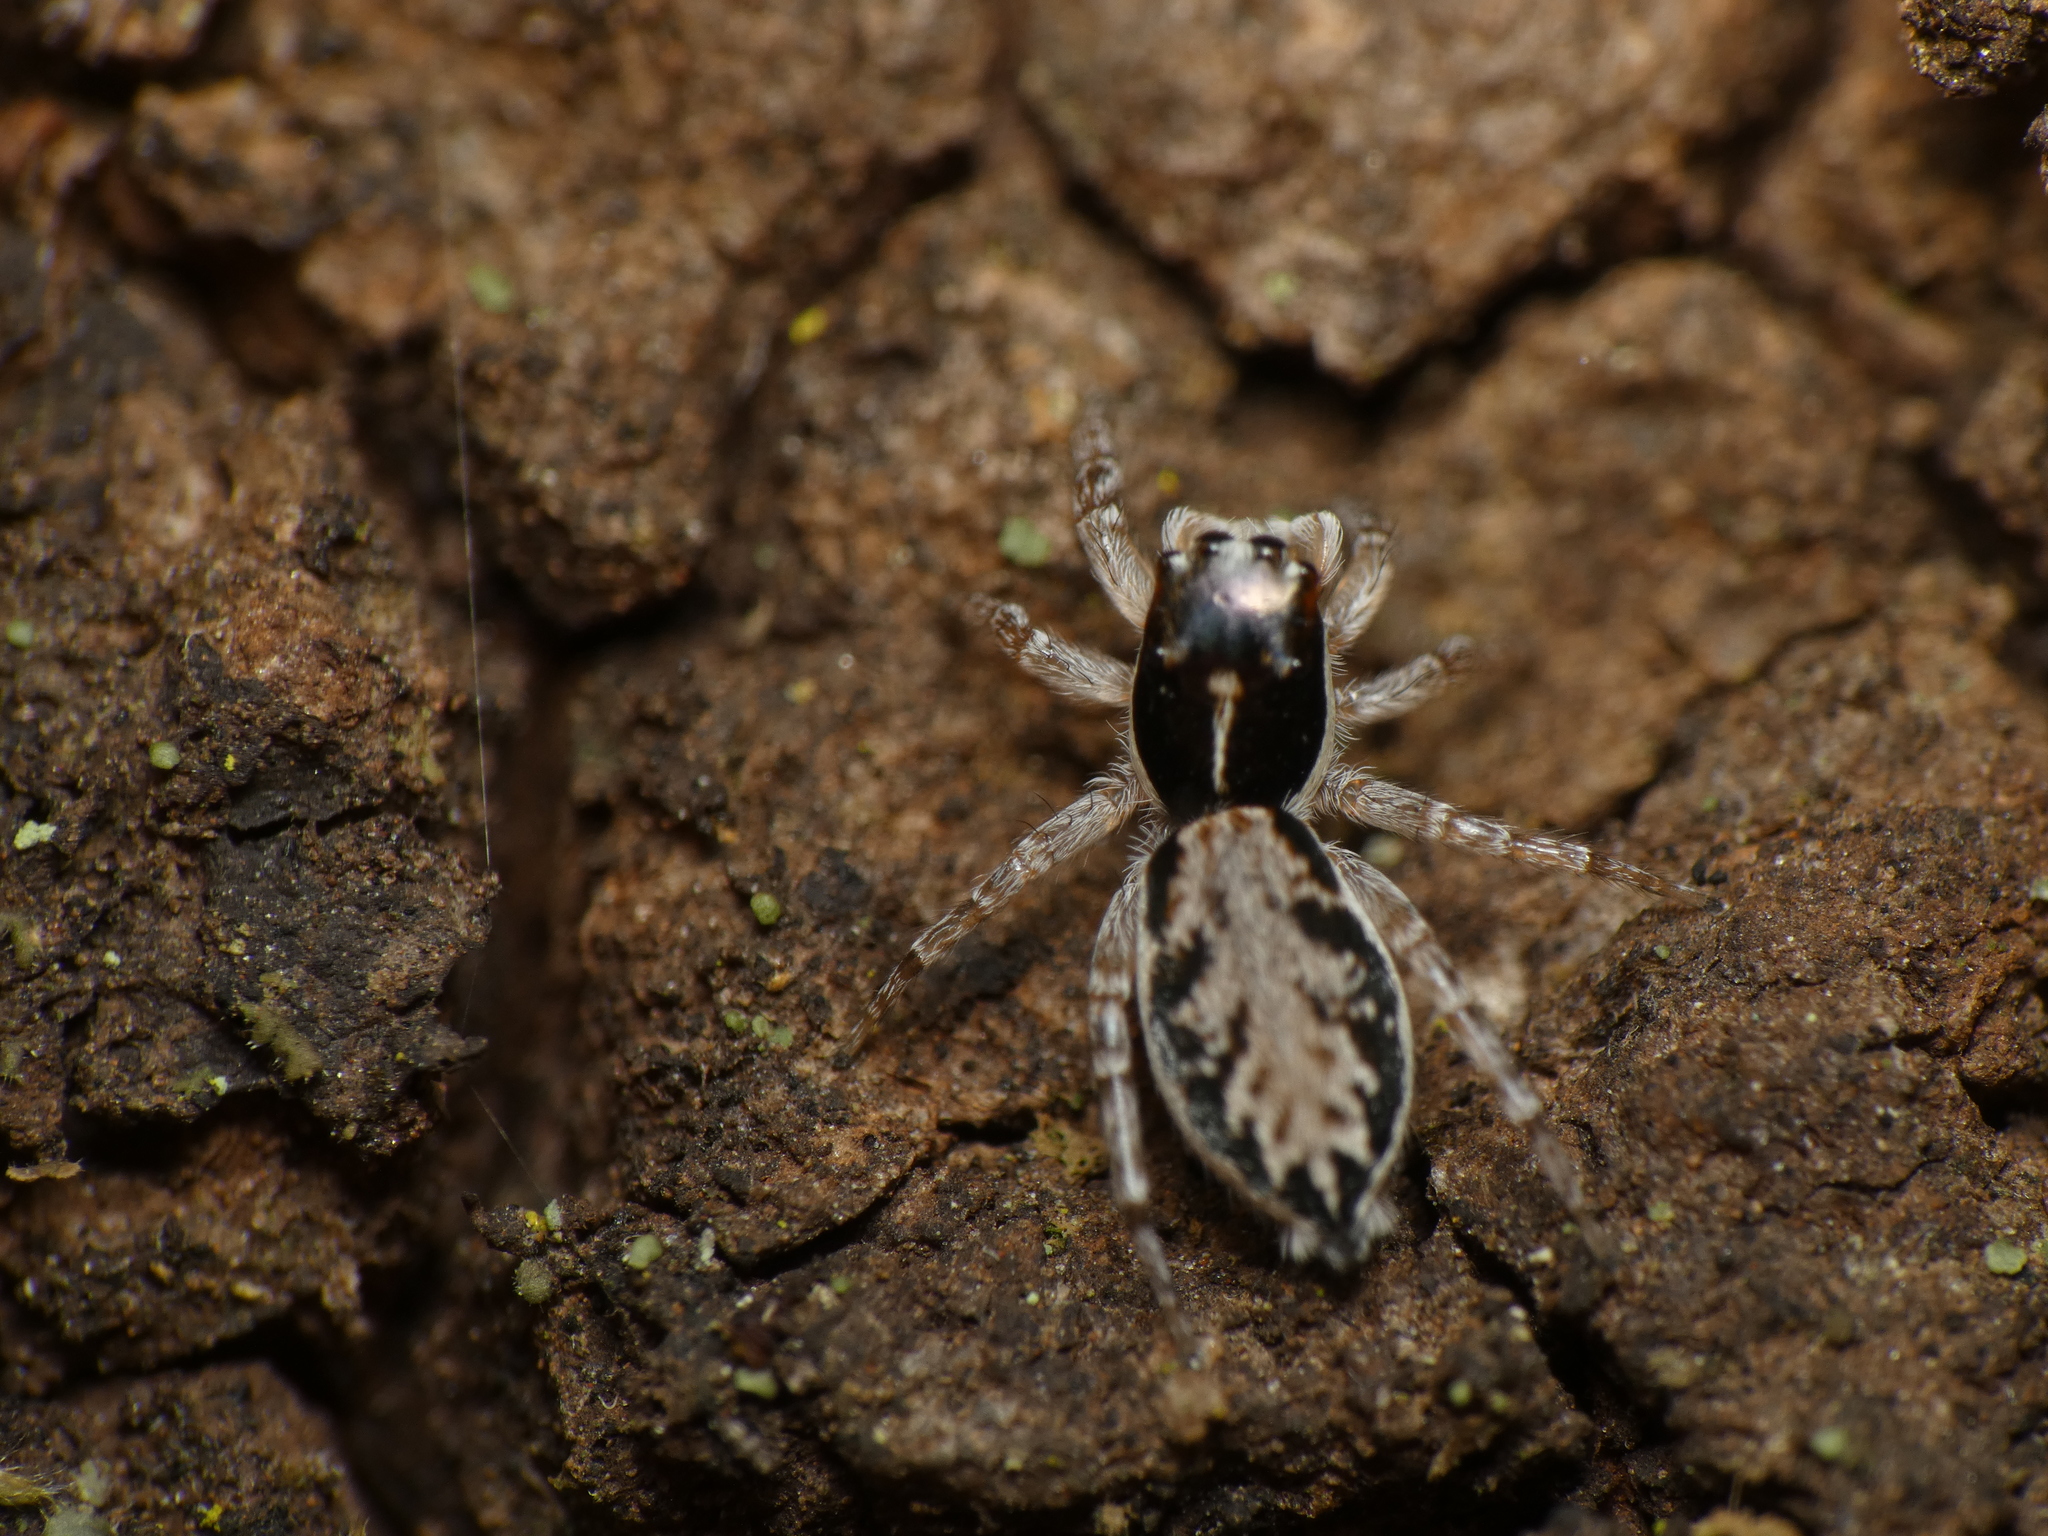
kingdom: Animalia
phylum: Arthropoda
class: Arachnida
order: Araneae
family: Salticidae
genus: Menemerus
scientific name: Menemerus carlini
